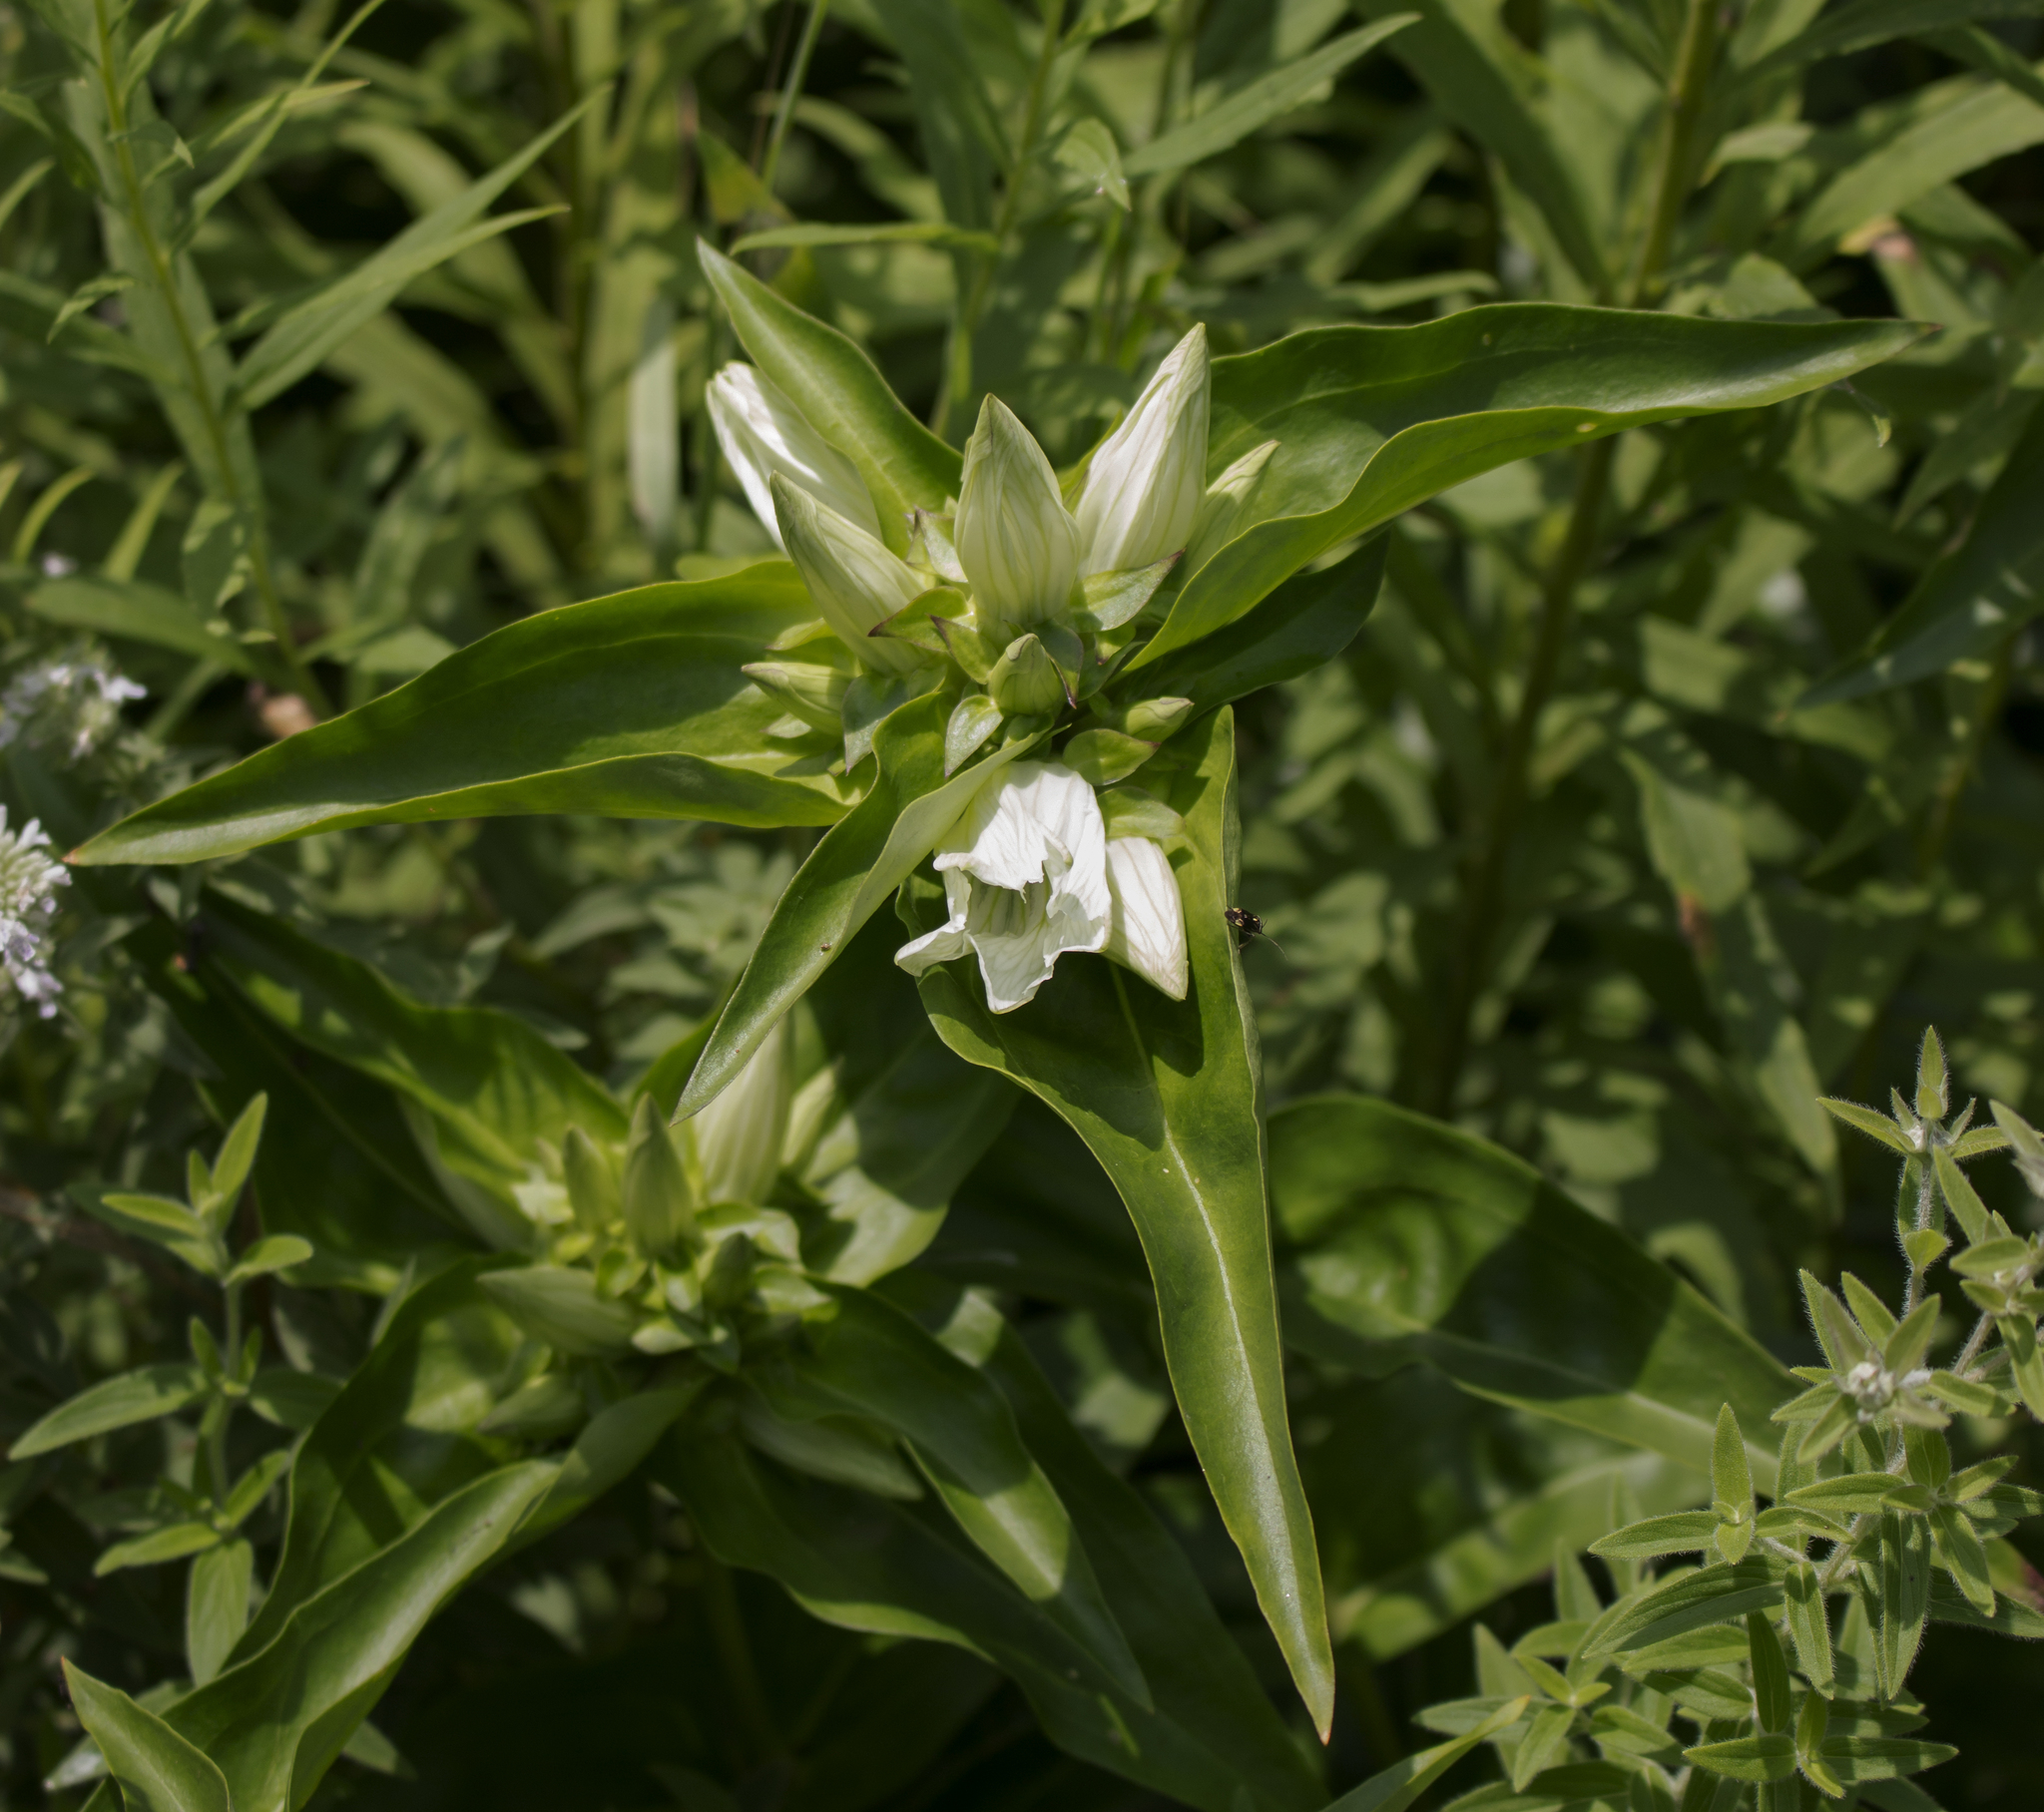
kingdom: Plantae
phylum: Tracheophyta
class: Magnoliopsida
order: Gentianales
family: Gentianaceae
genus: Gentiana
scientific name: Gentiana alba
